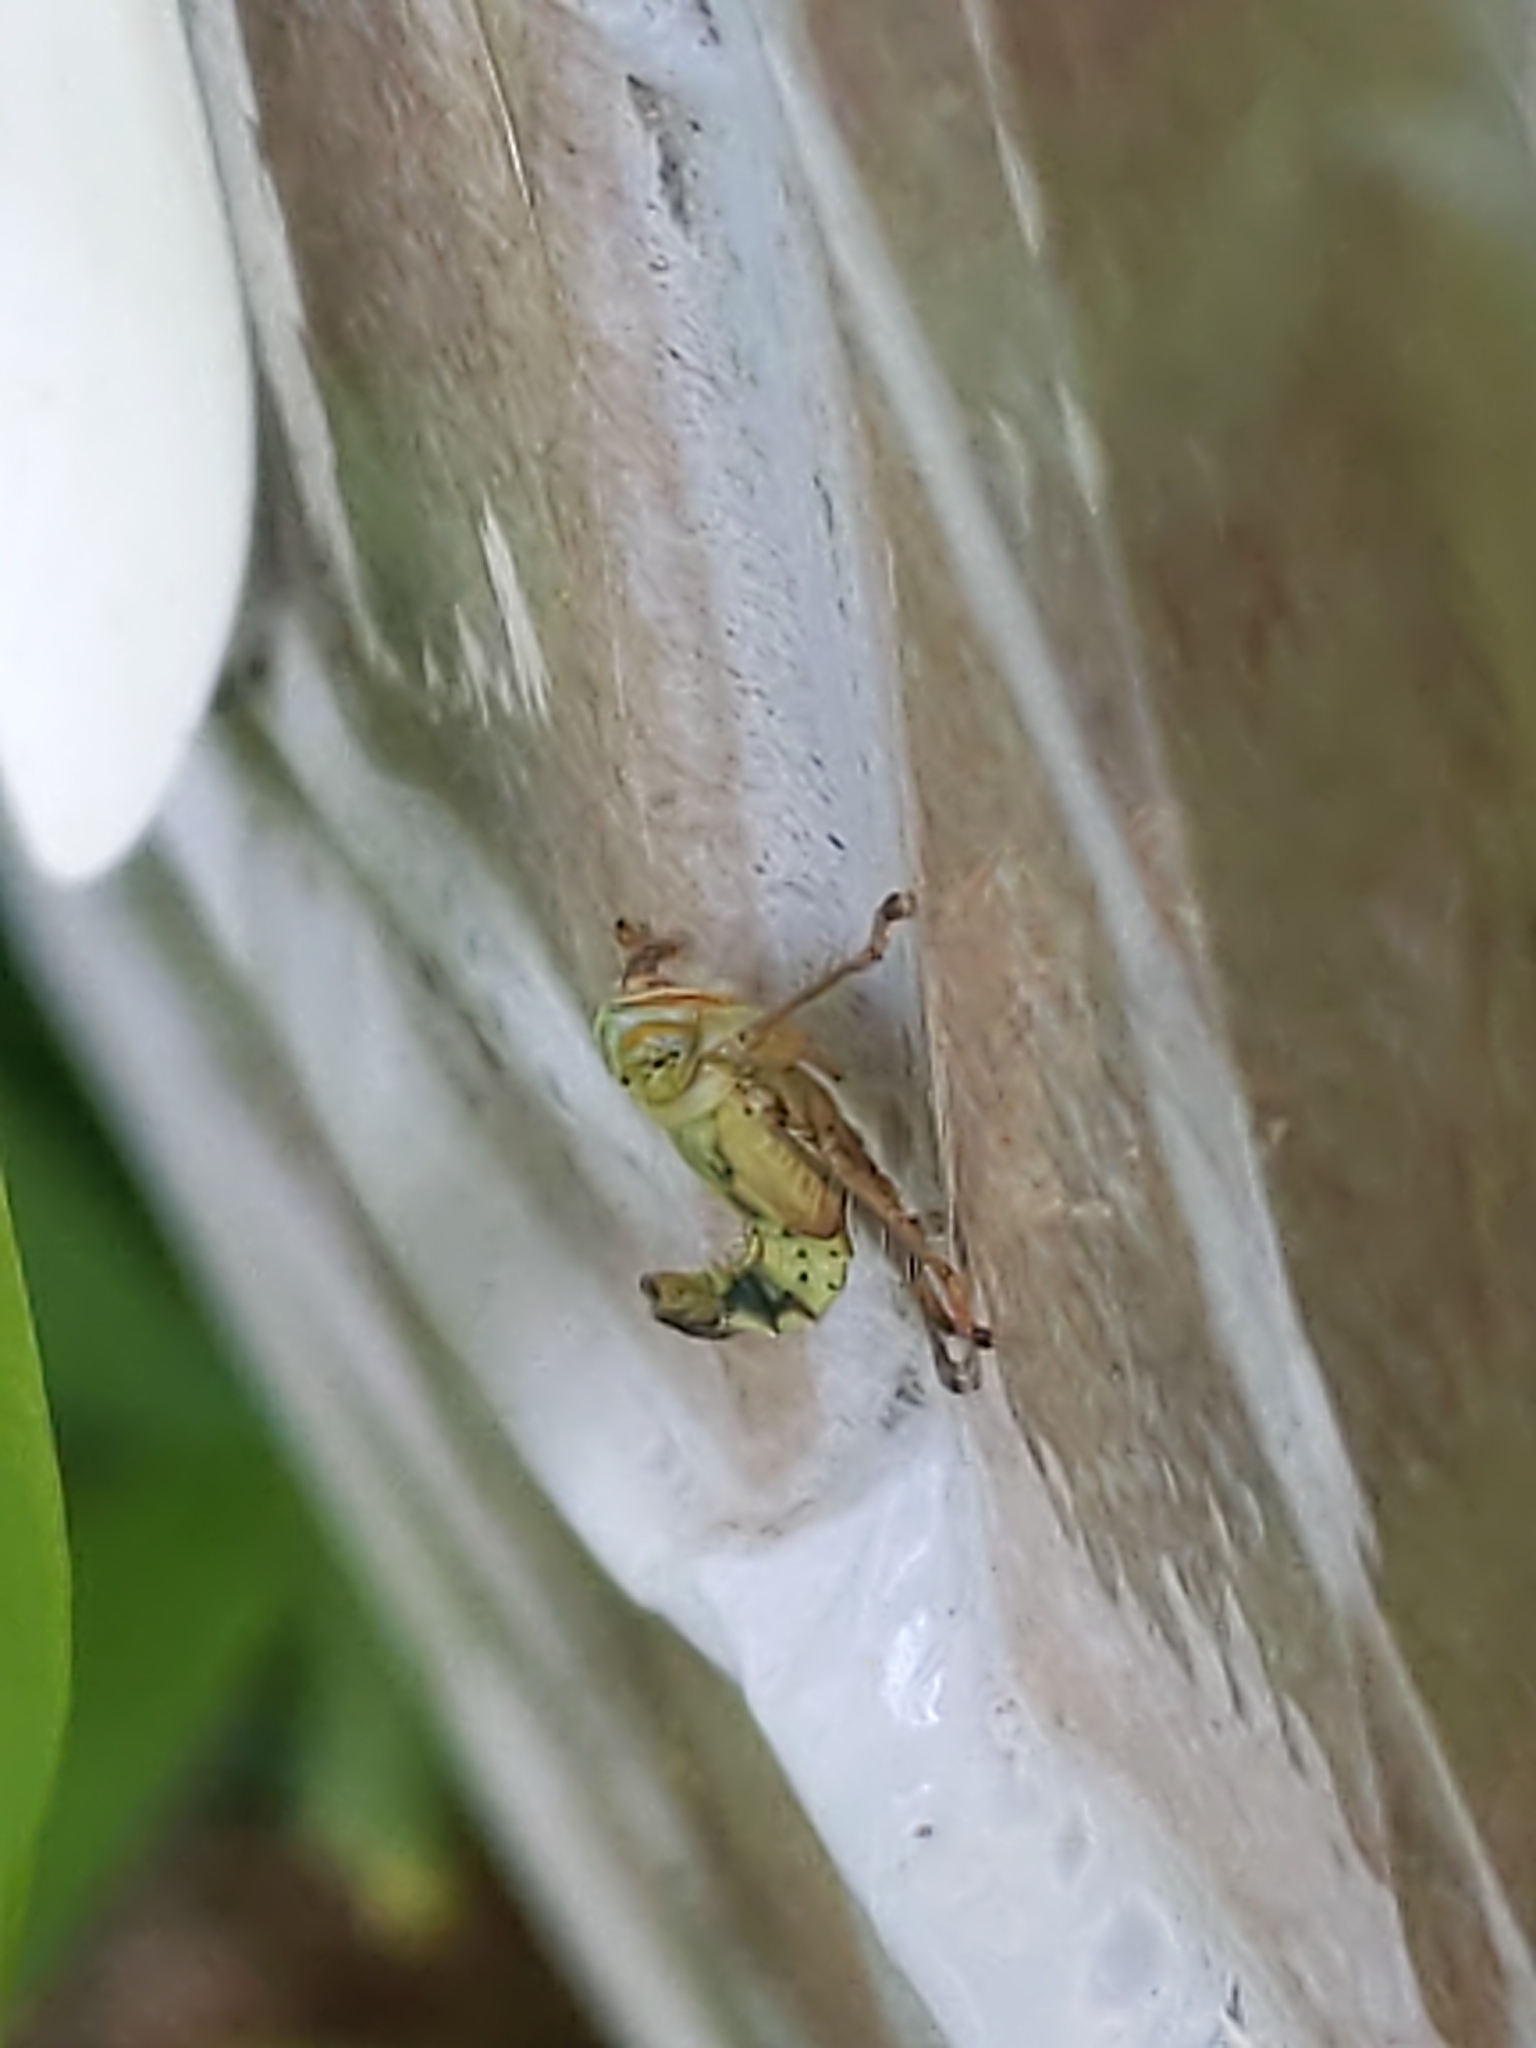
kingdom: Animalia
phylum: Arthropoda
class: Insecta
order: Hemiptera
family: Cicadellidae
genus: Jikradia
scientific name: Jikradia olitoria
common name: Coppery leafhopper
